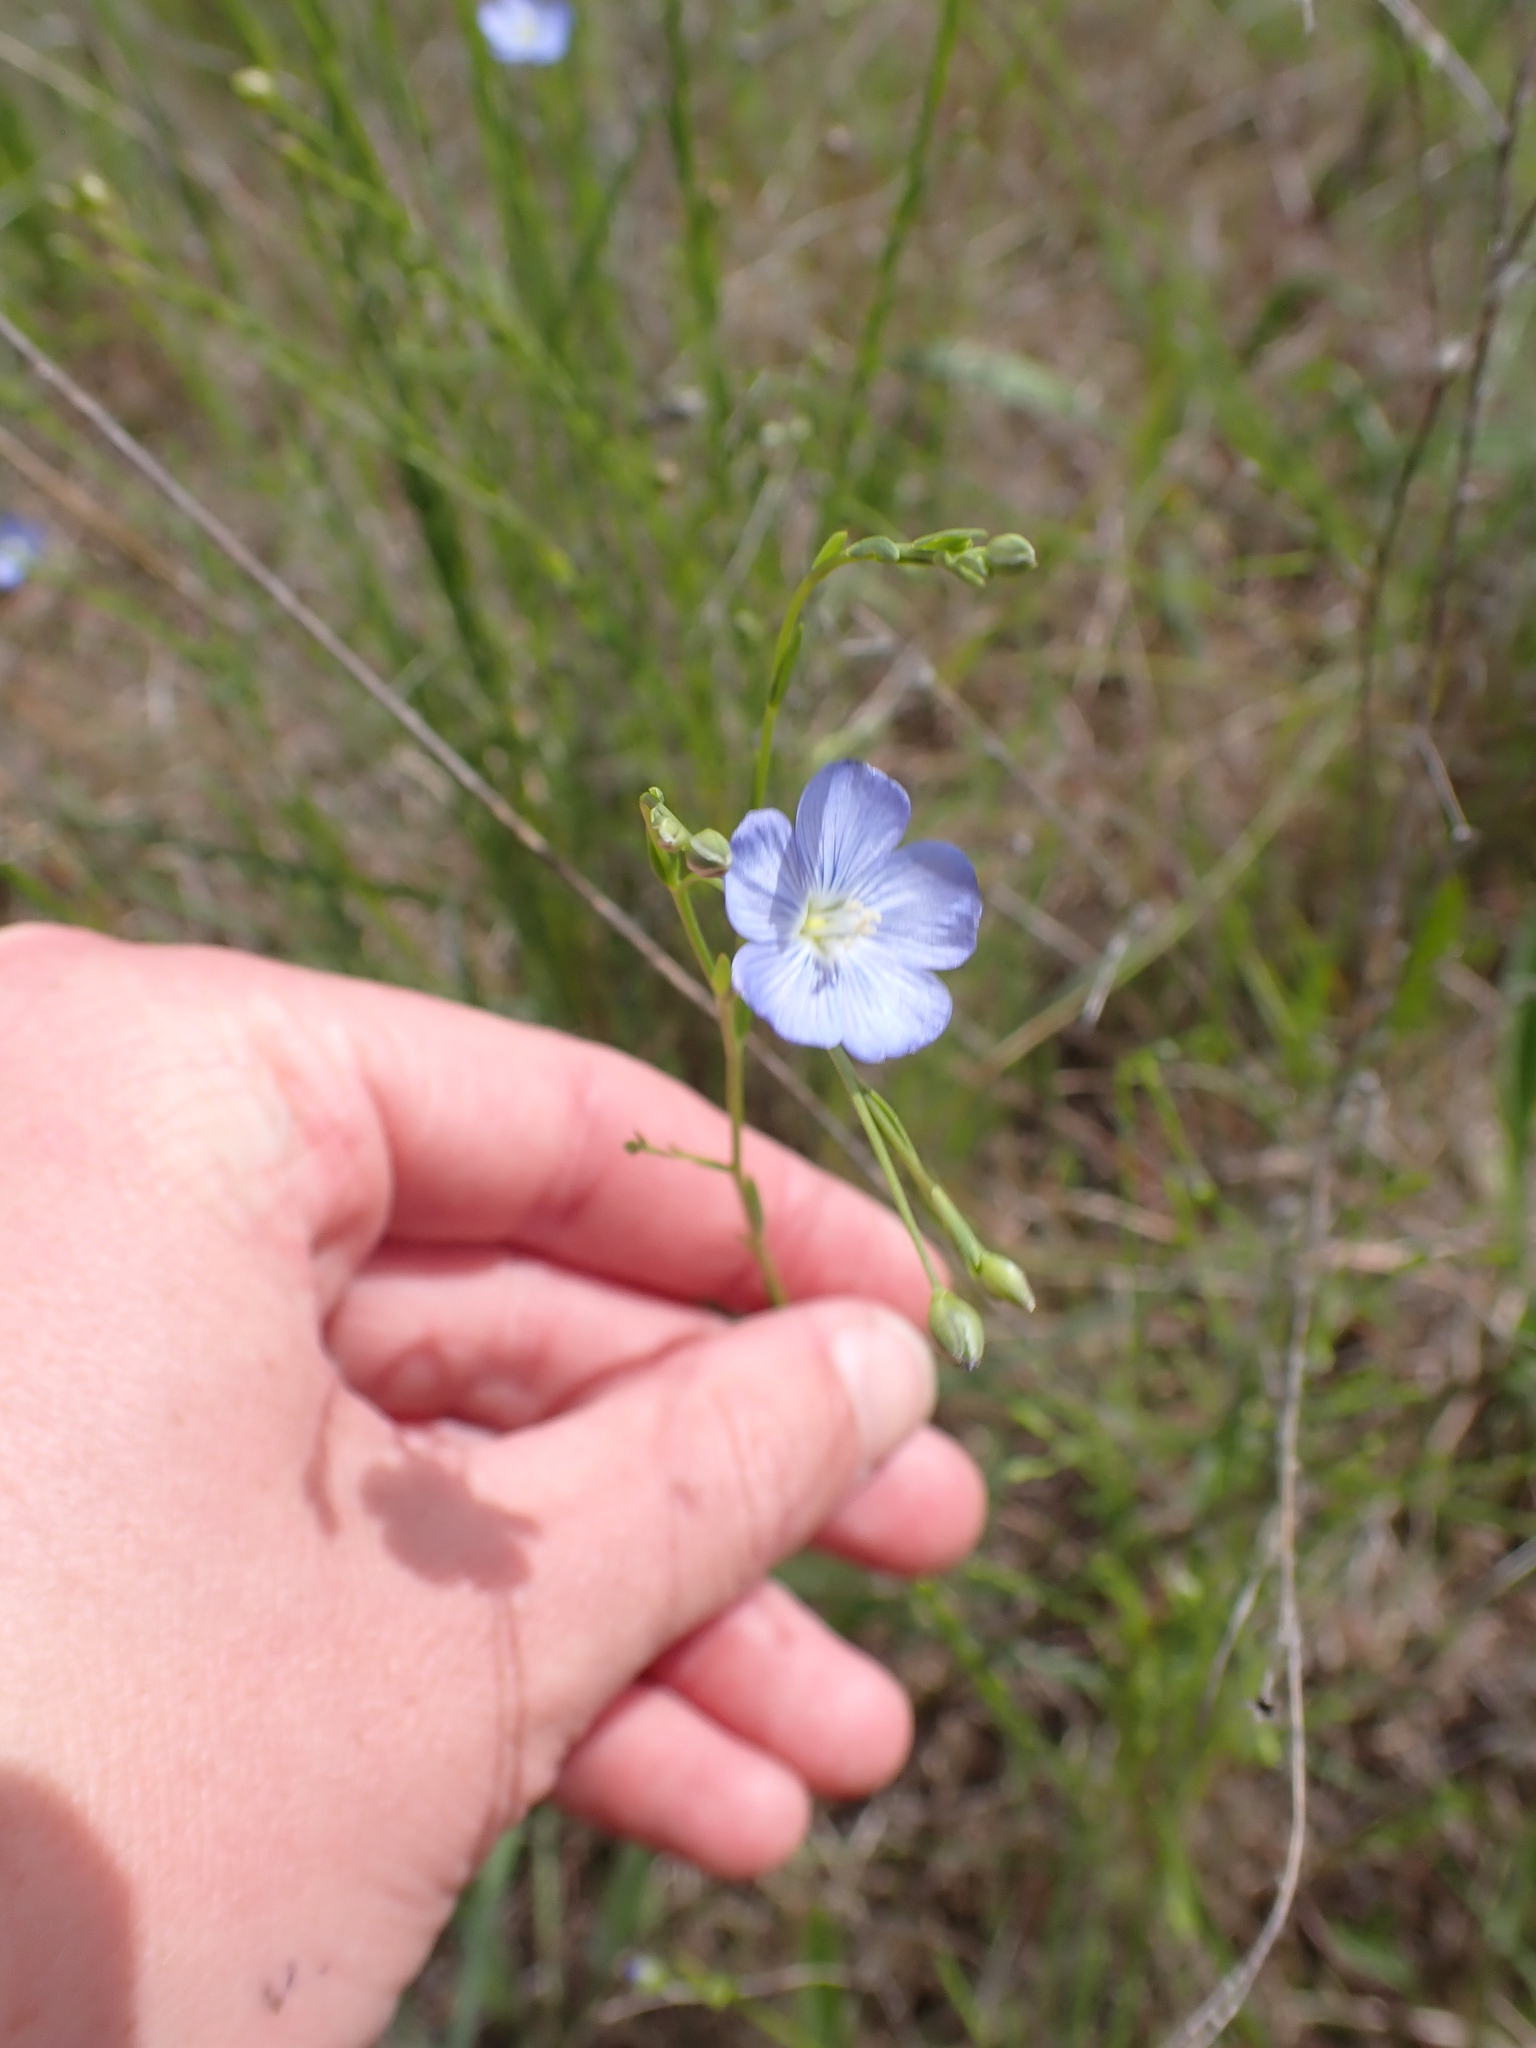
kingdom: Plantae
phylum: Tracheophyta
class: Magnoliopsida
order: Malpighiales
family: Linaceae
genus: Linum
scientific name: Linum marginale
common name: Wild flax
